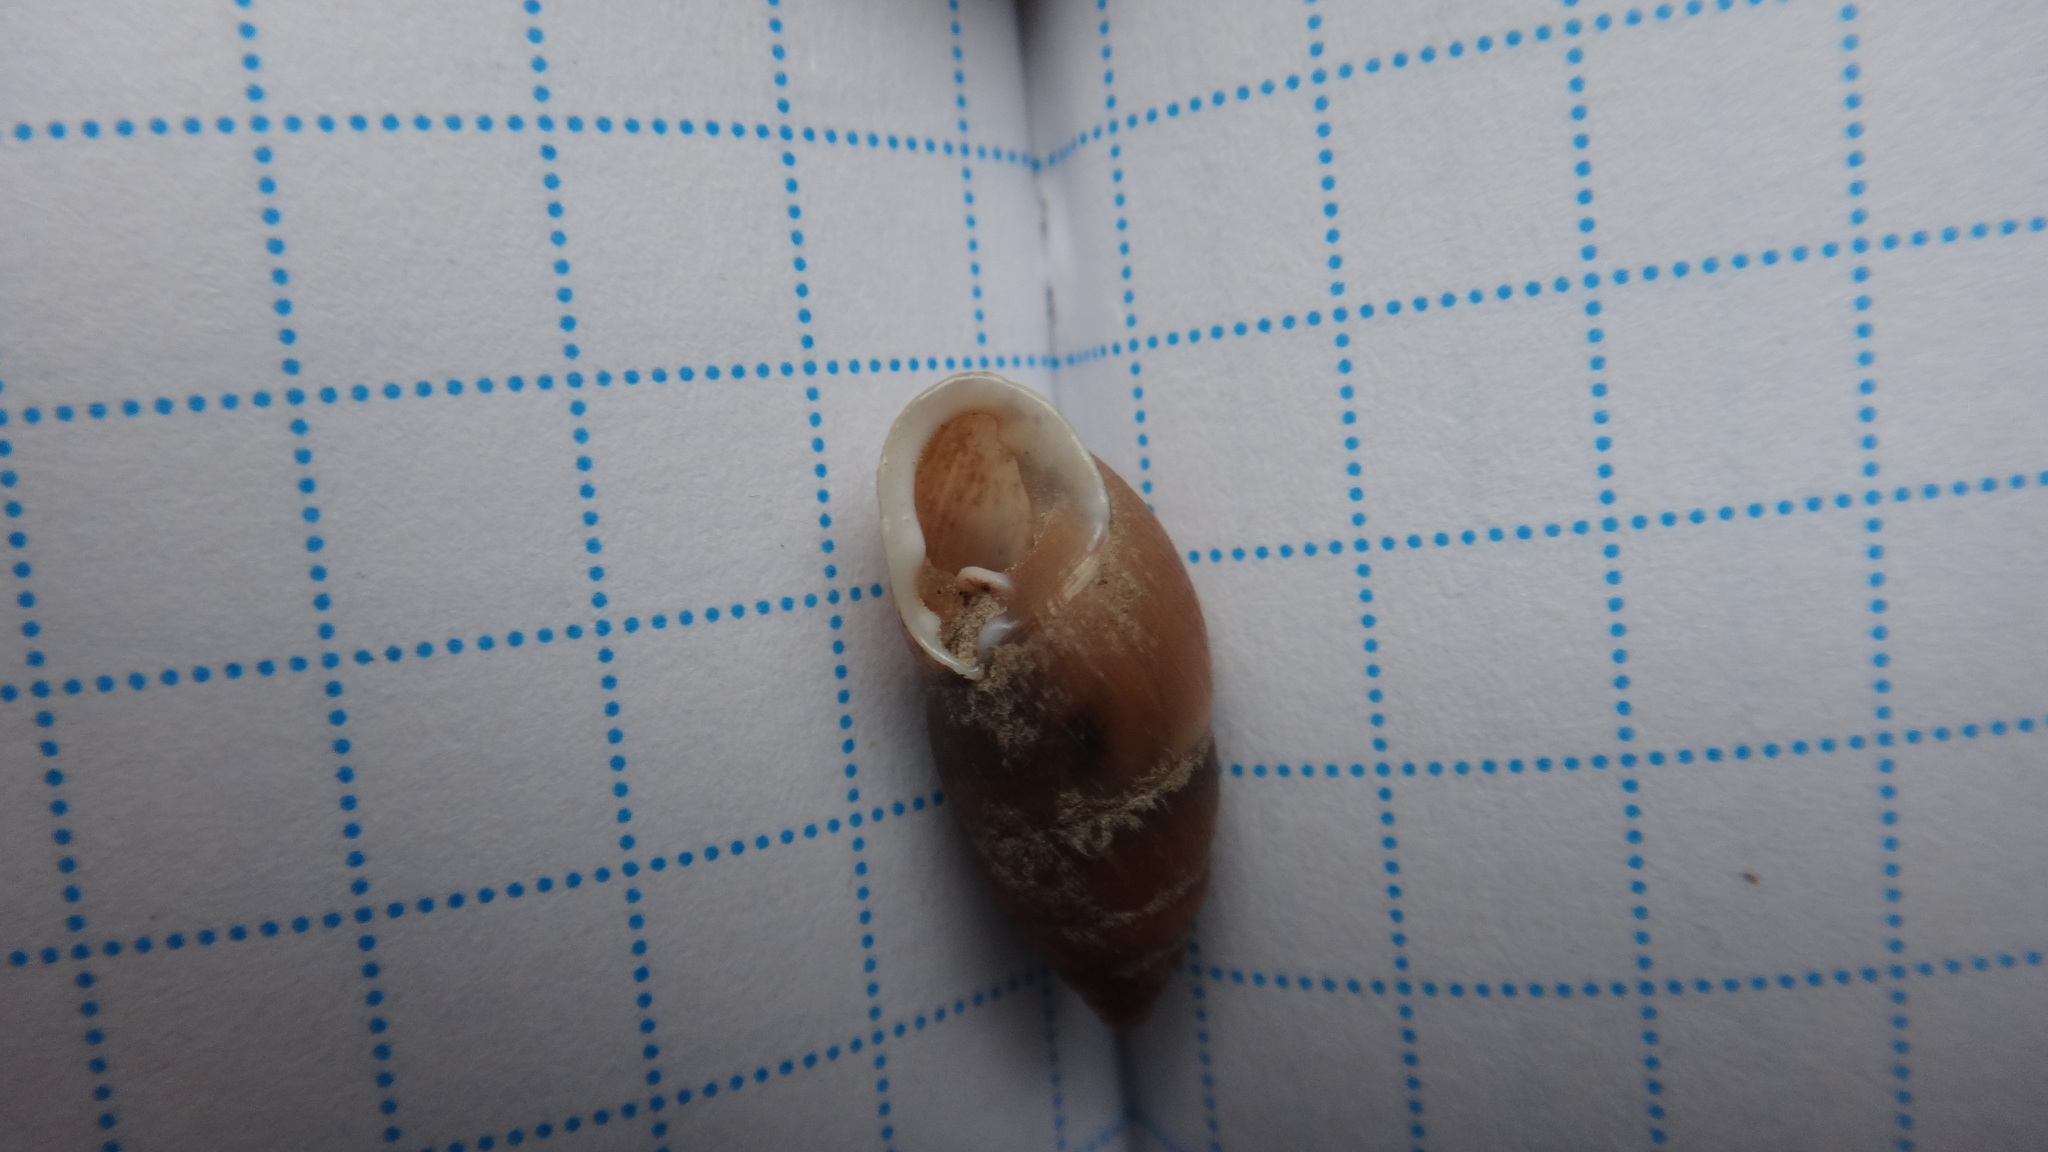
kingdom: Animalia
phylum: Mollusca
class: Gastropoda
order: Stylommatophora
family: Enidae
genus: Chondrula
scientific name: Chondrula tridens
